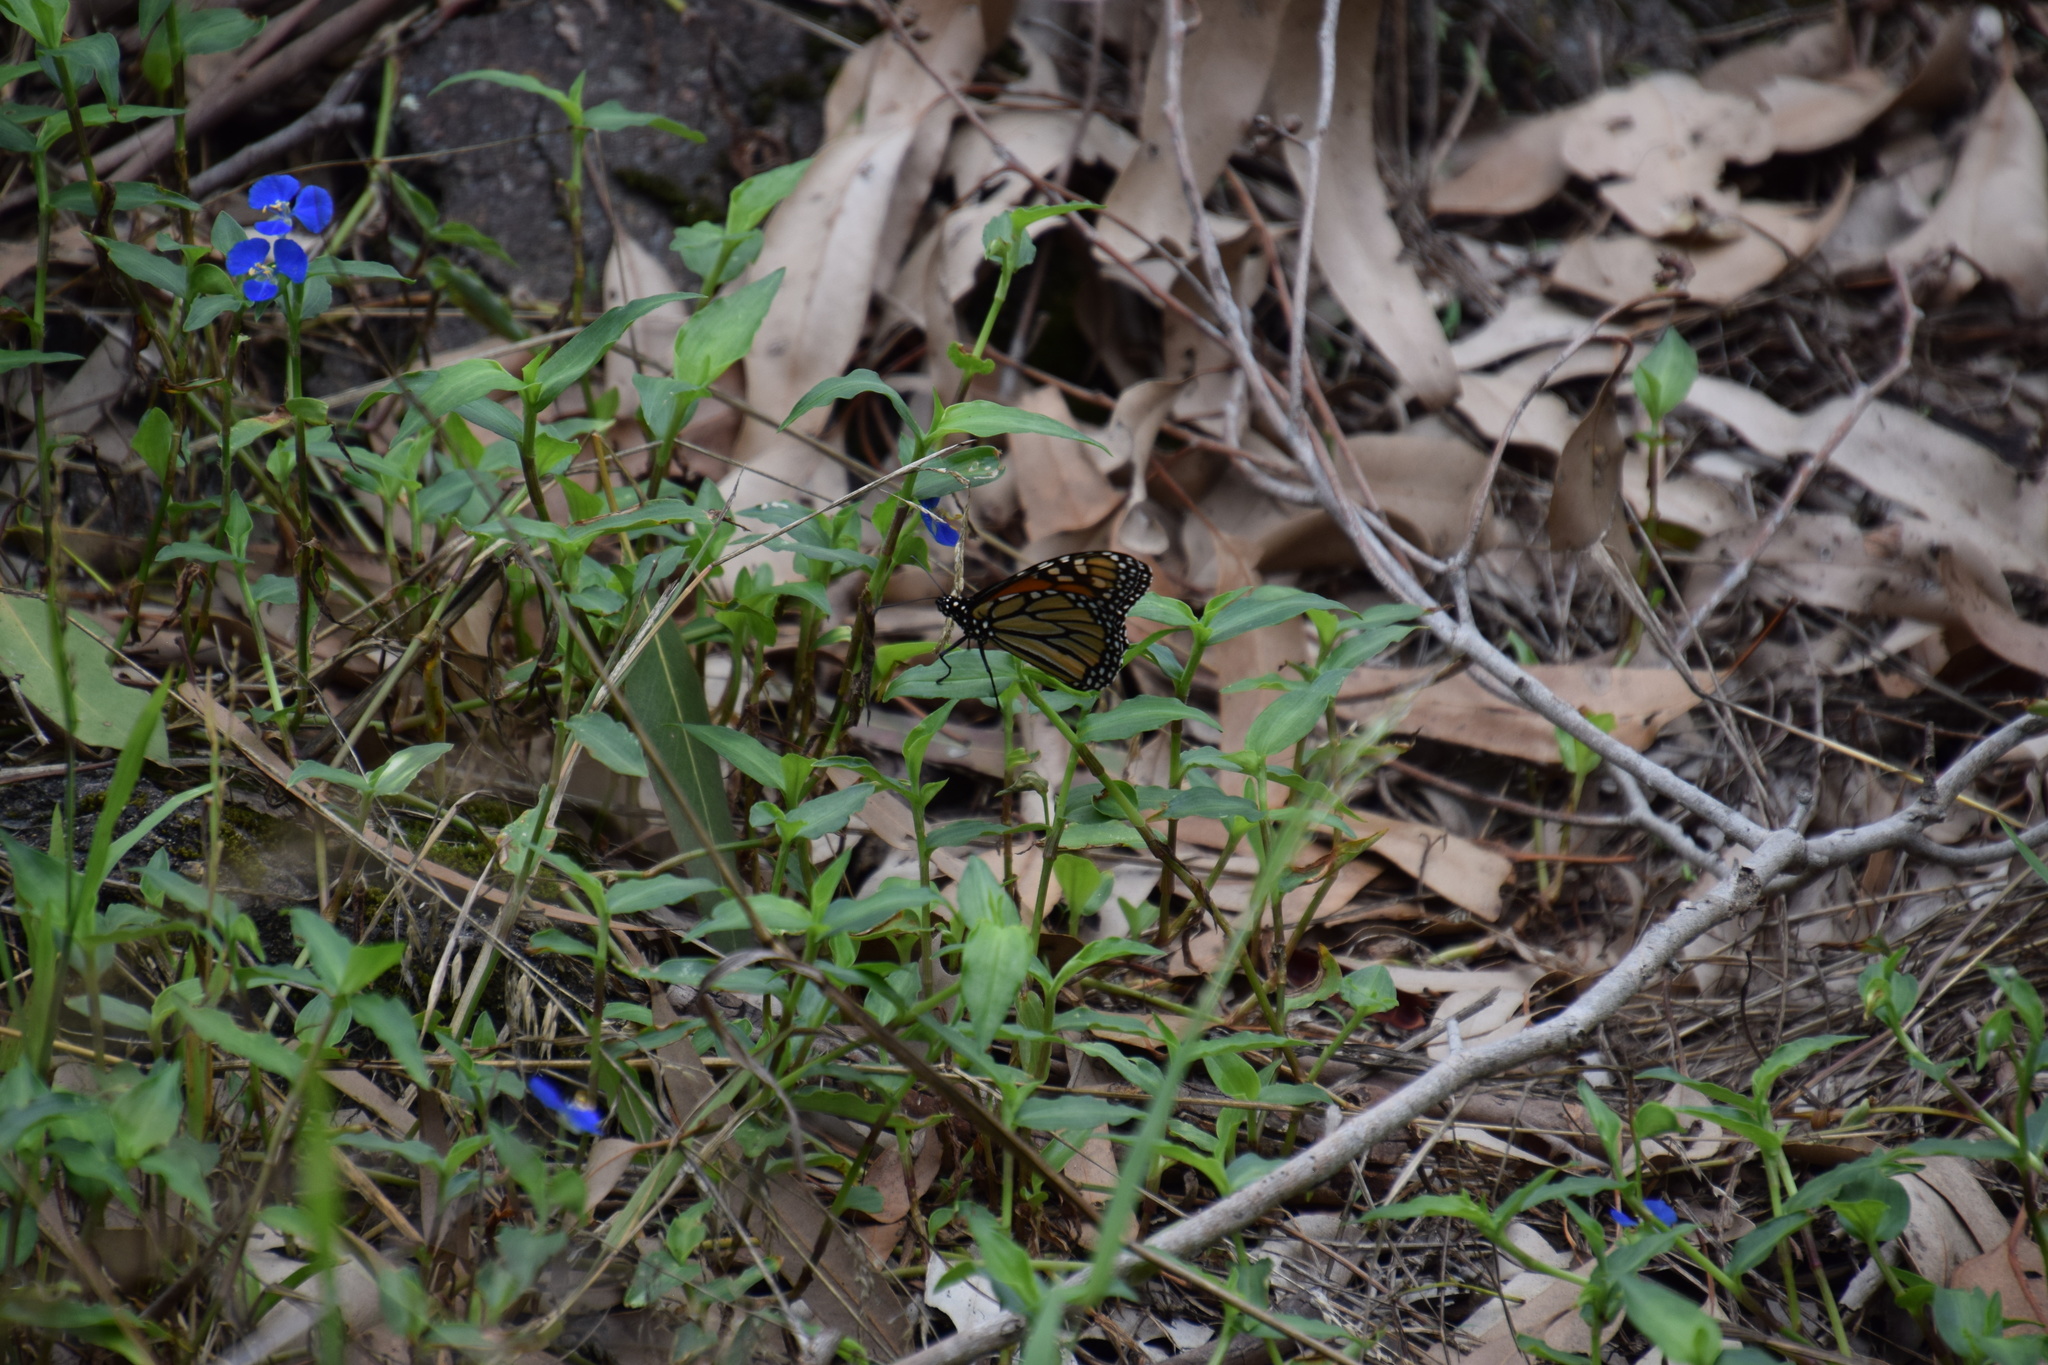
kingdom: Animalia
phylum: Arthropoda
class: Insecta
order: Lepidoptera
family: Nymphalidae
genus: Danaus
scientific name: Danaus plexippus
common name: Monarch
